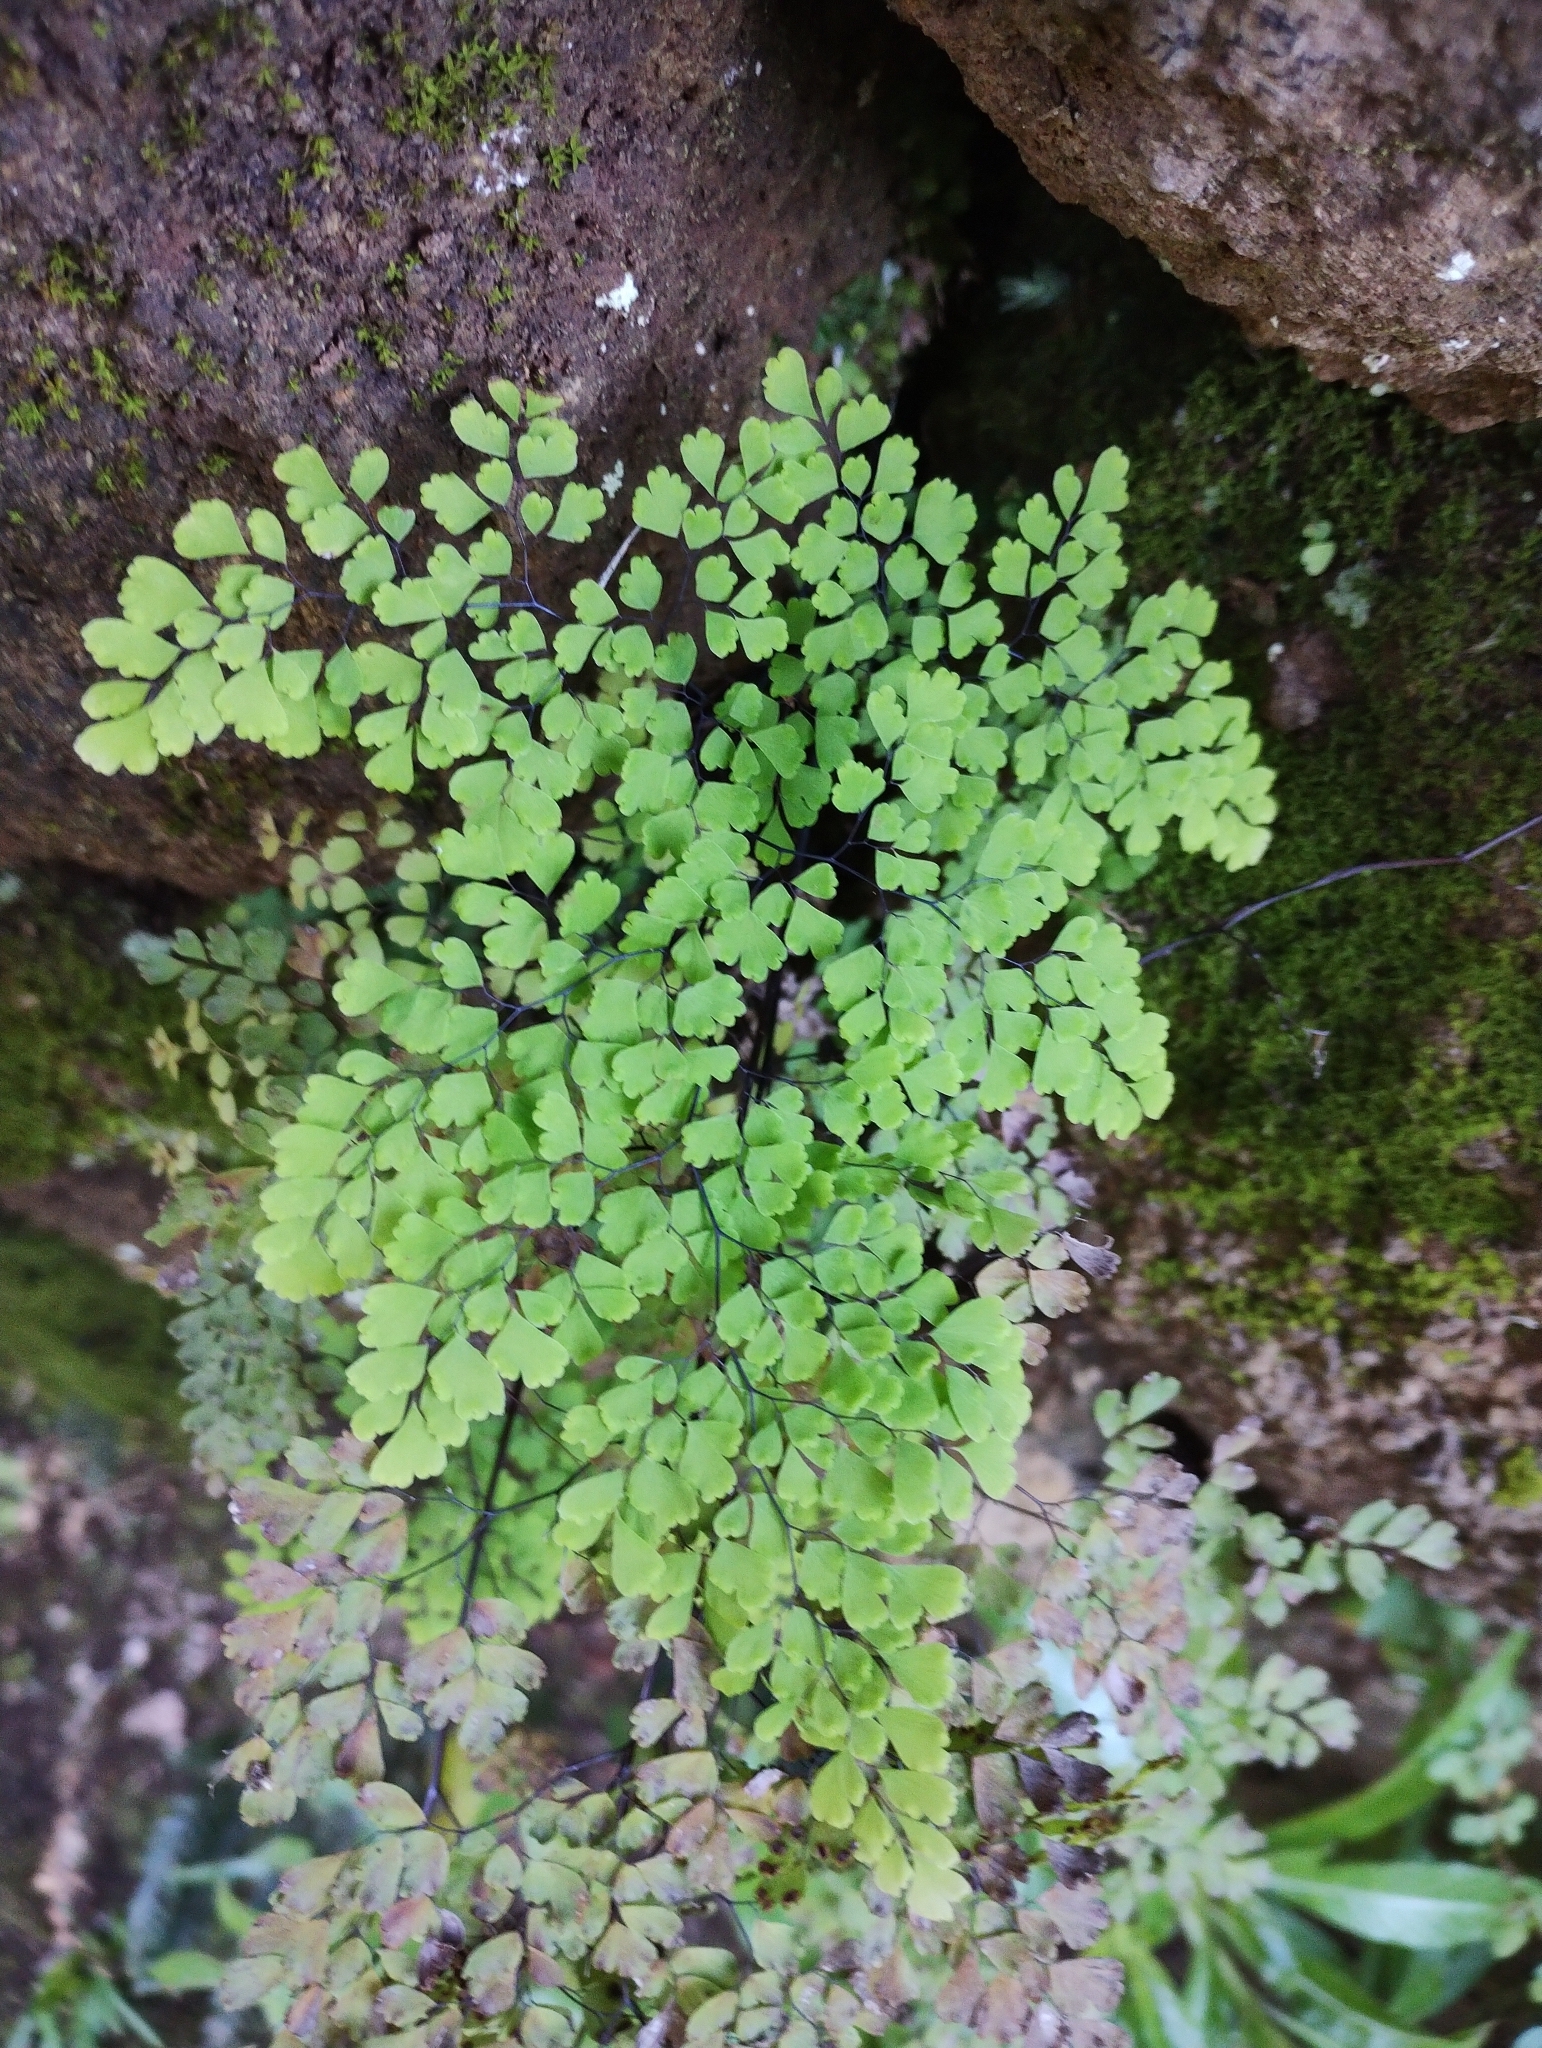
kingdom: Plantae
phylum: Tracheophyta
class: Polypodiopsida
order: Polypodiales
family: Pteridaceae
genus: Adiantum
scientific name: Adiantum raddianum
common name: Delta maidenhair fern
